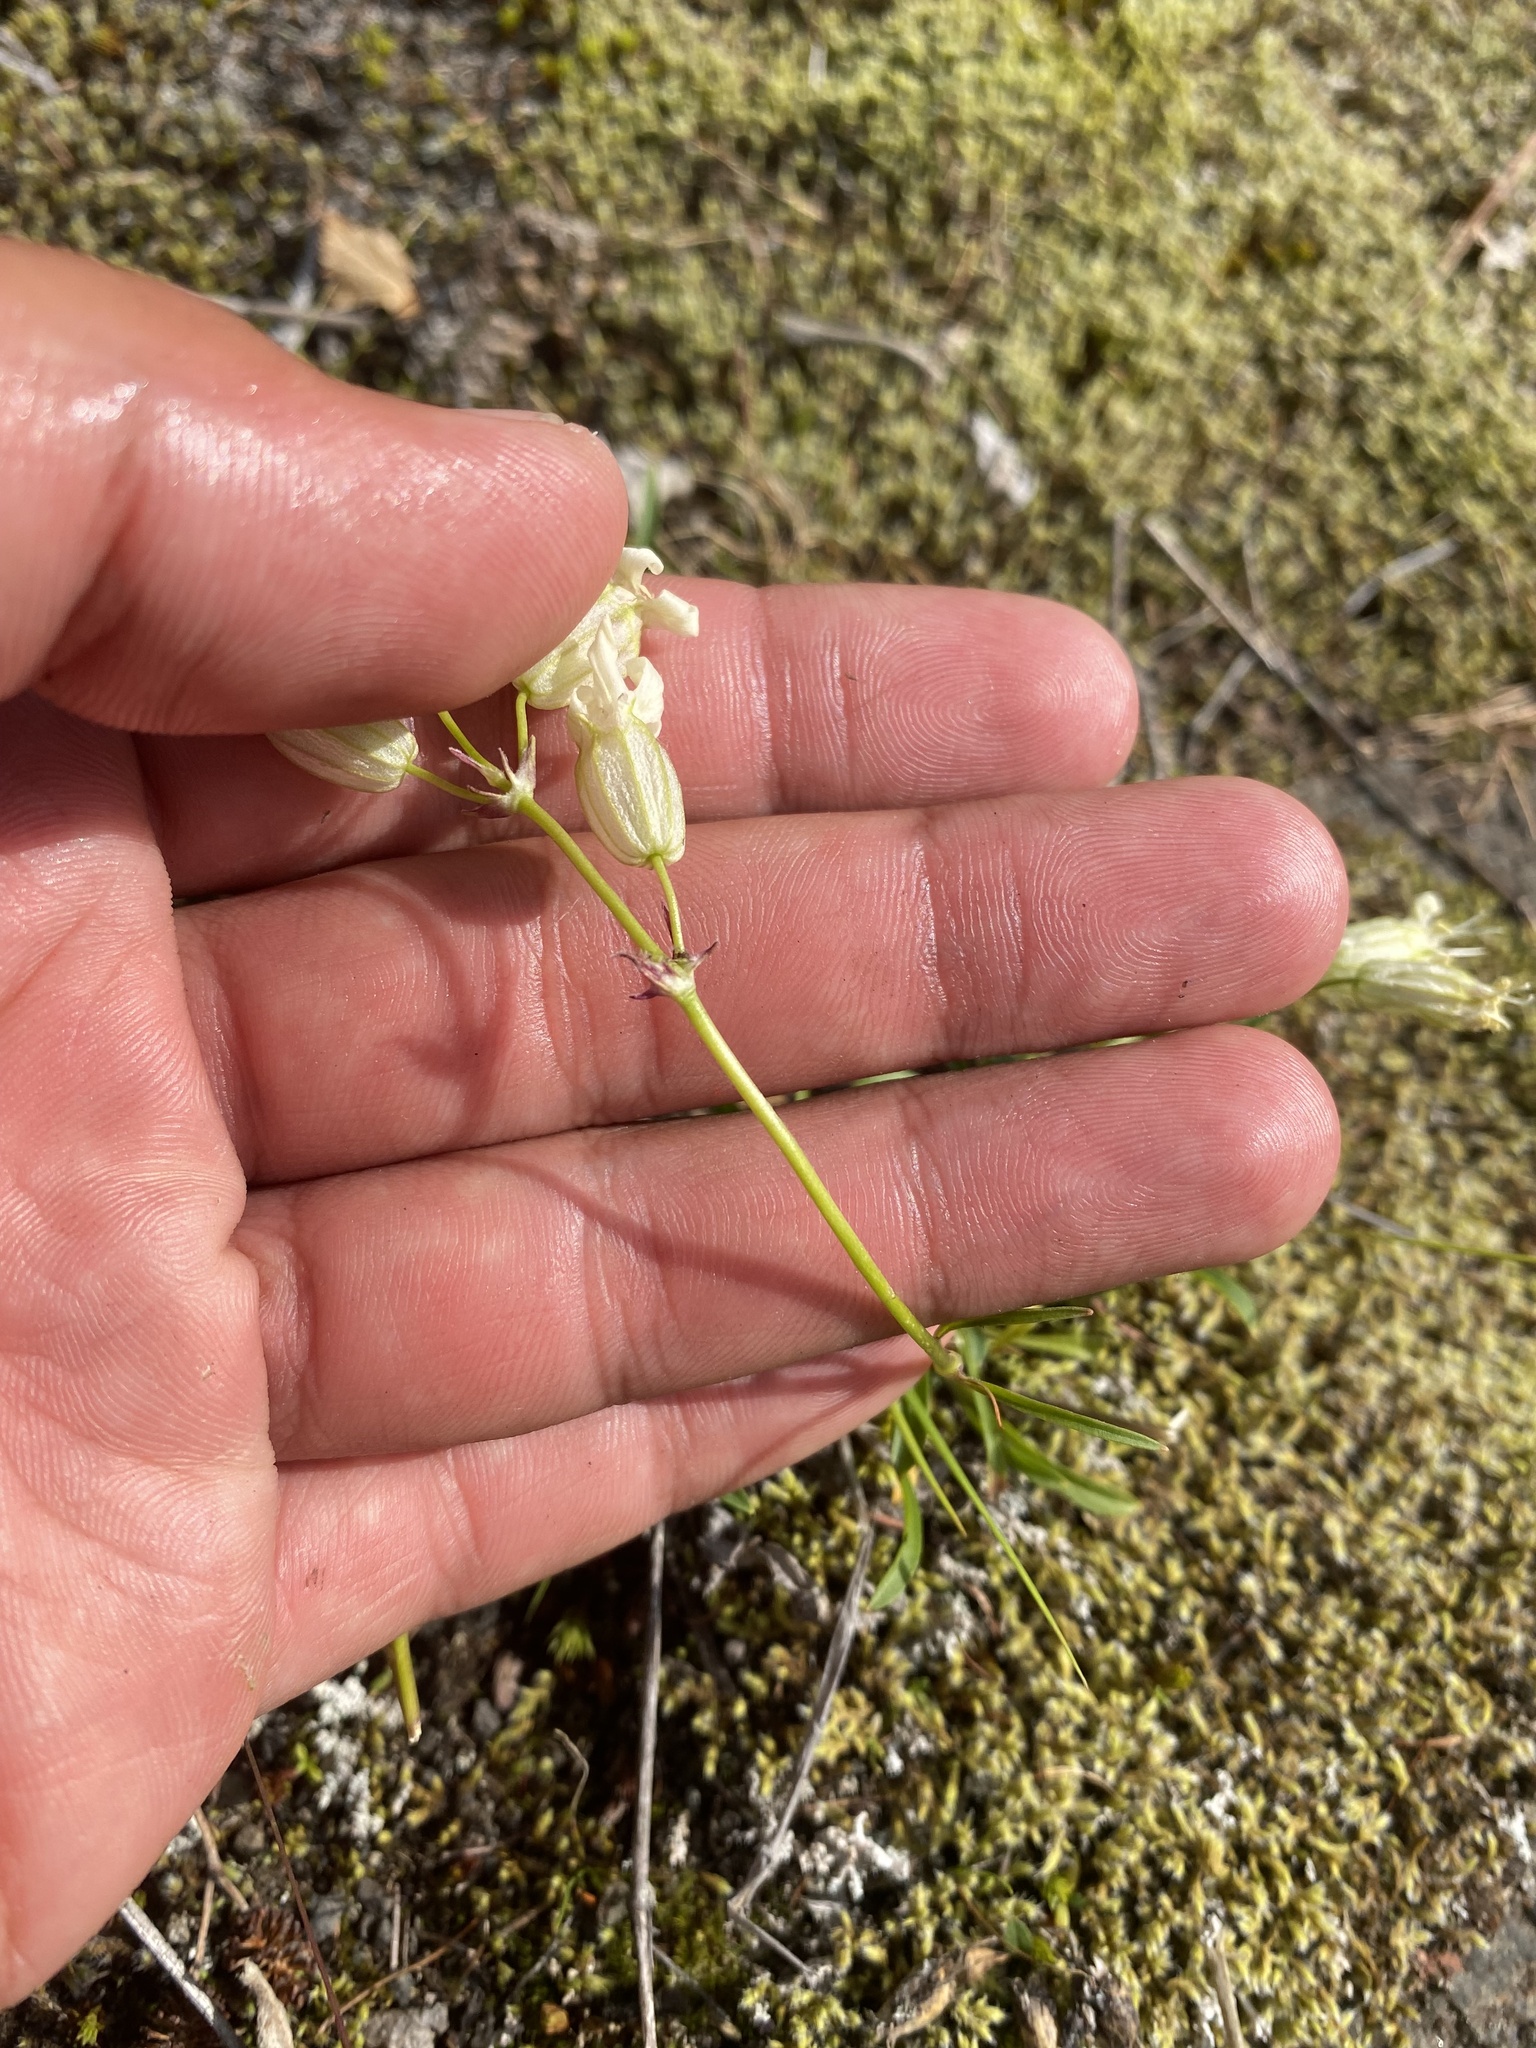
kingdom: Plantae
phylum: Tracheophyta
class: Magnoliopsida
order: Caryophyllales
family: Caryophyllaceae
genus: Silene
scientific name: Silene chamarensis
